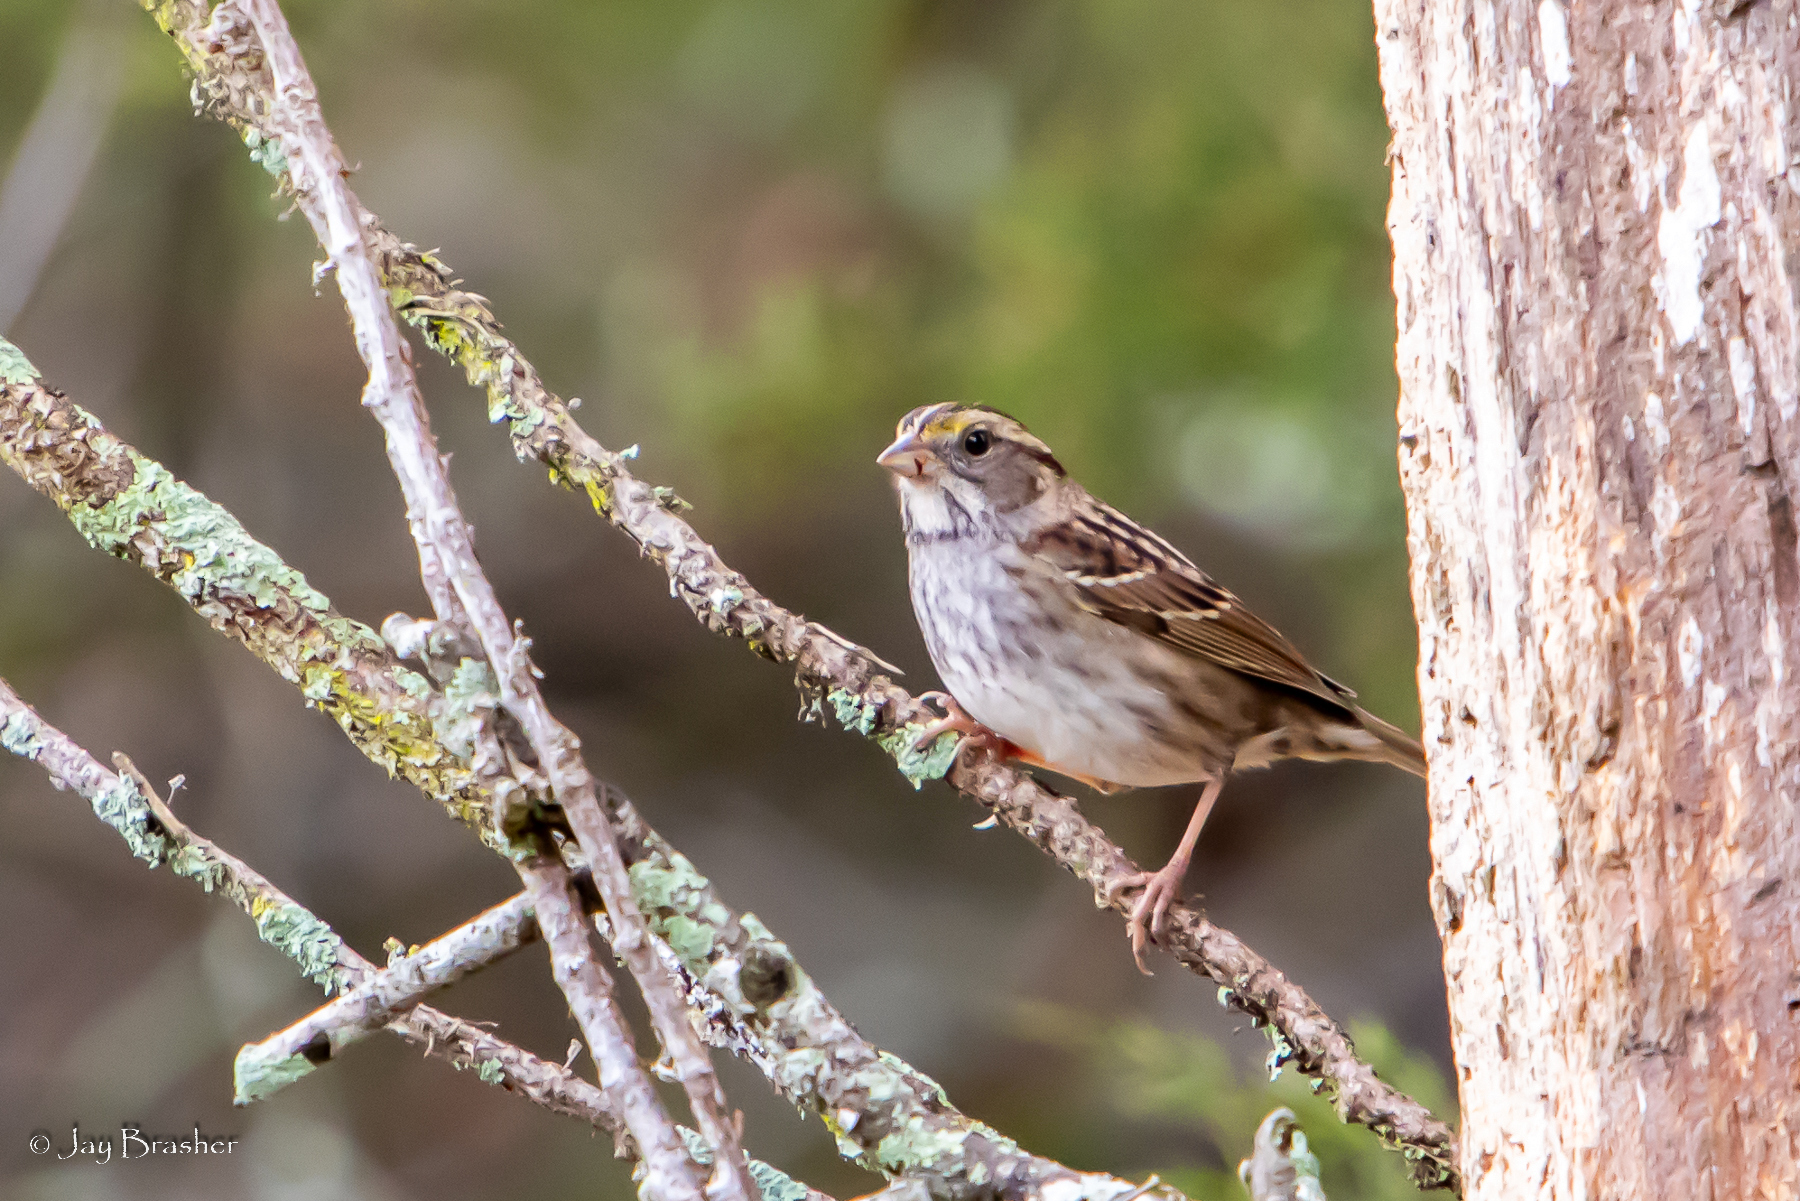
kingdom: Animalia
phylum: Chordata
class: Aves
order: Passeriformes
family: Passerellidae
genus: Zonotrichia
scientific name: Zonotrichia albicollis
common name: White-throated sparrow
